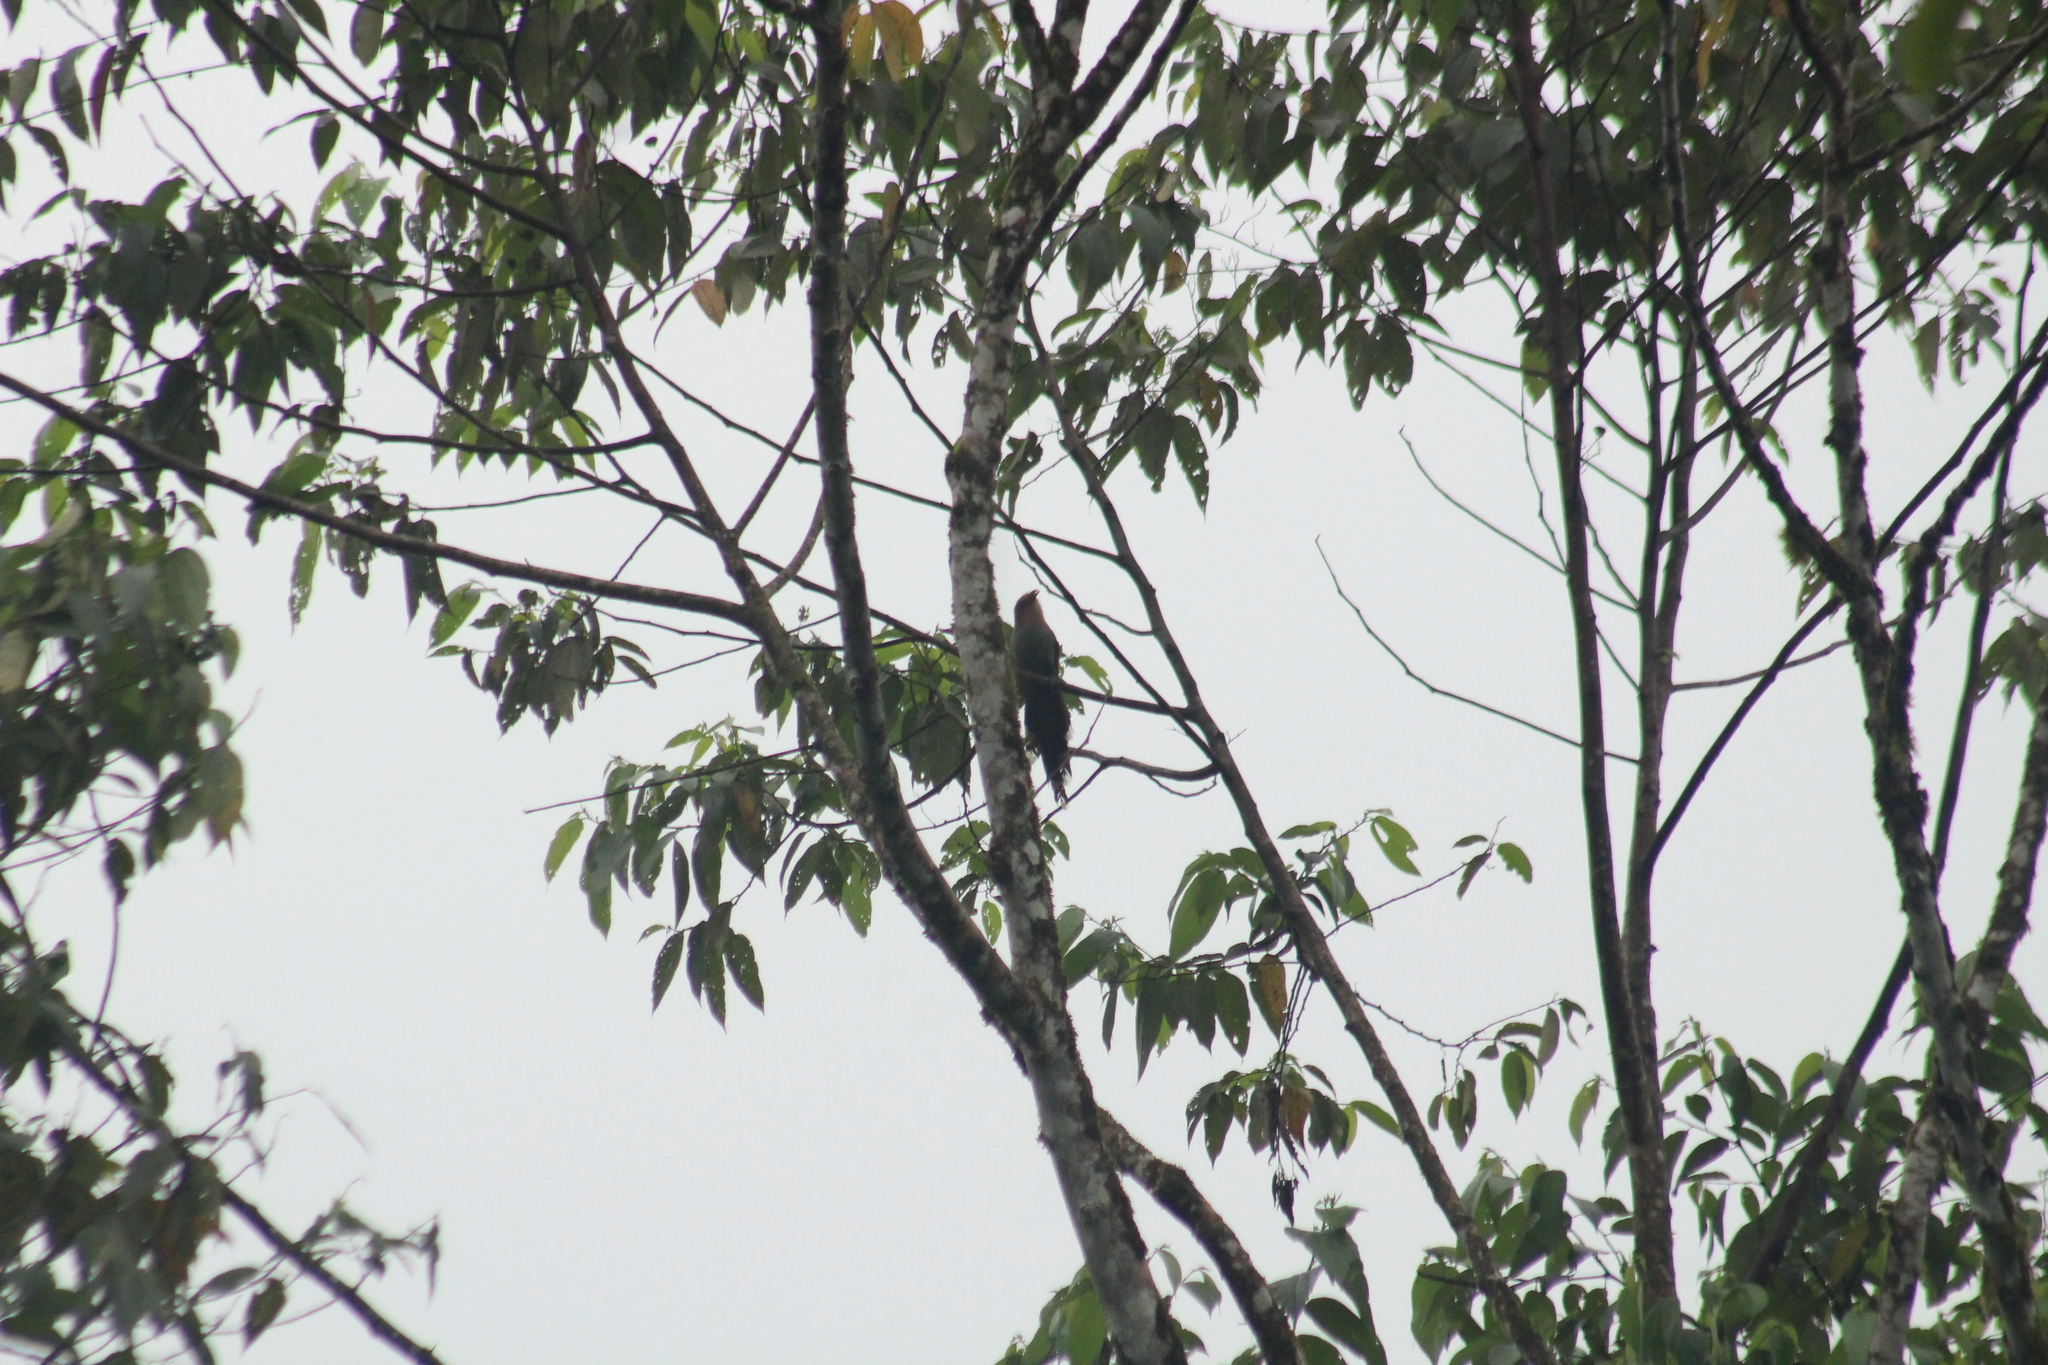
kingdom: Animalia
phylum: Chordata
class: Aves
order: Cuculiformes
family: Cuculidae
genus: Piaya
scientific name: Piaya cayana
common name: Squirrel cuckoo
